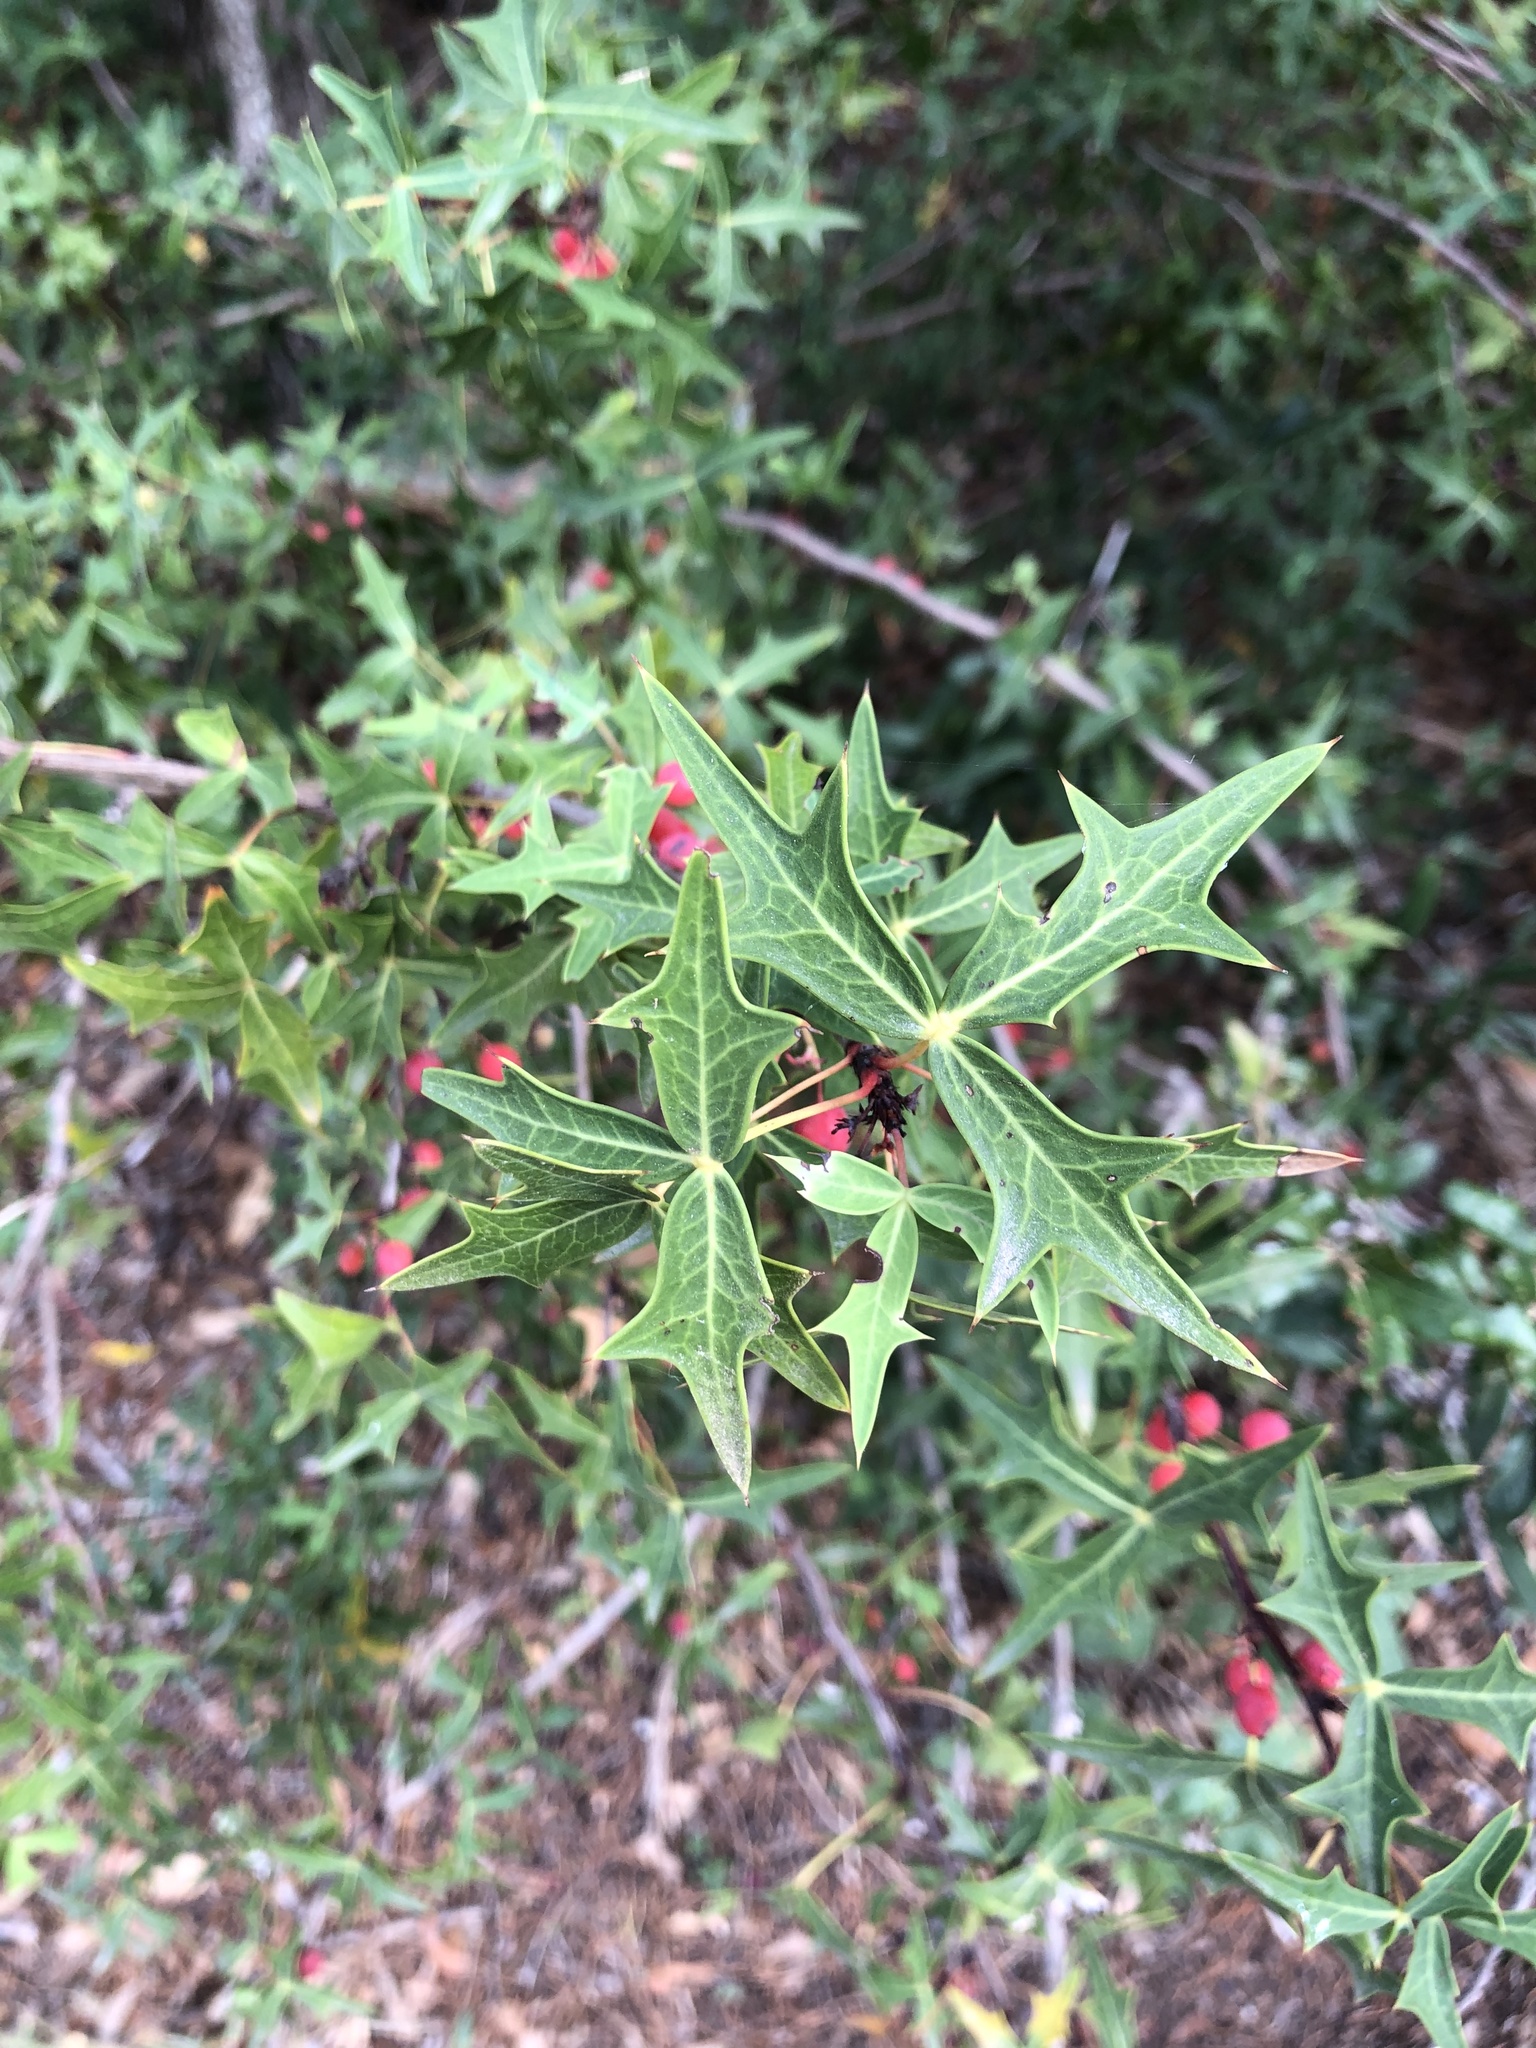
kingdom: Plantae
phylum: Tracheophyta
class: Magnoliopsida
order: Ranunculales
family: Berberidaceae
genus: Alloberberis
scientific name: Alloberberis trifoliolata
